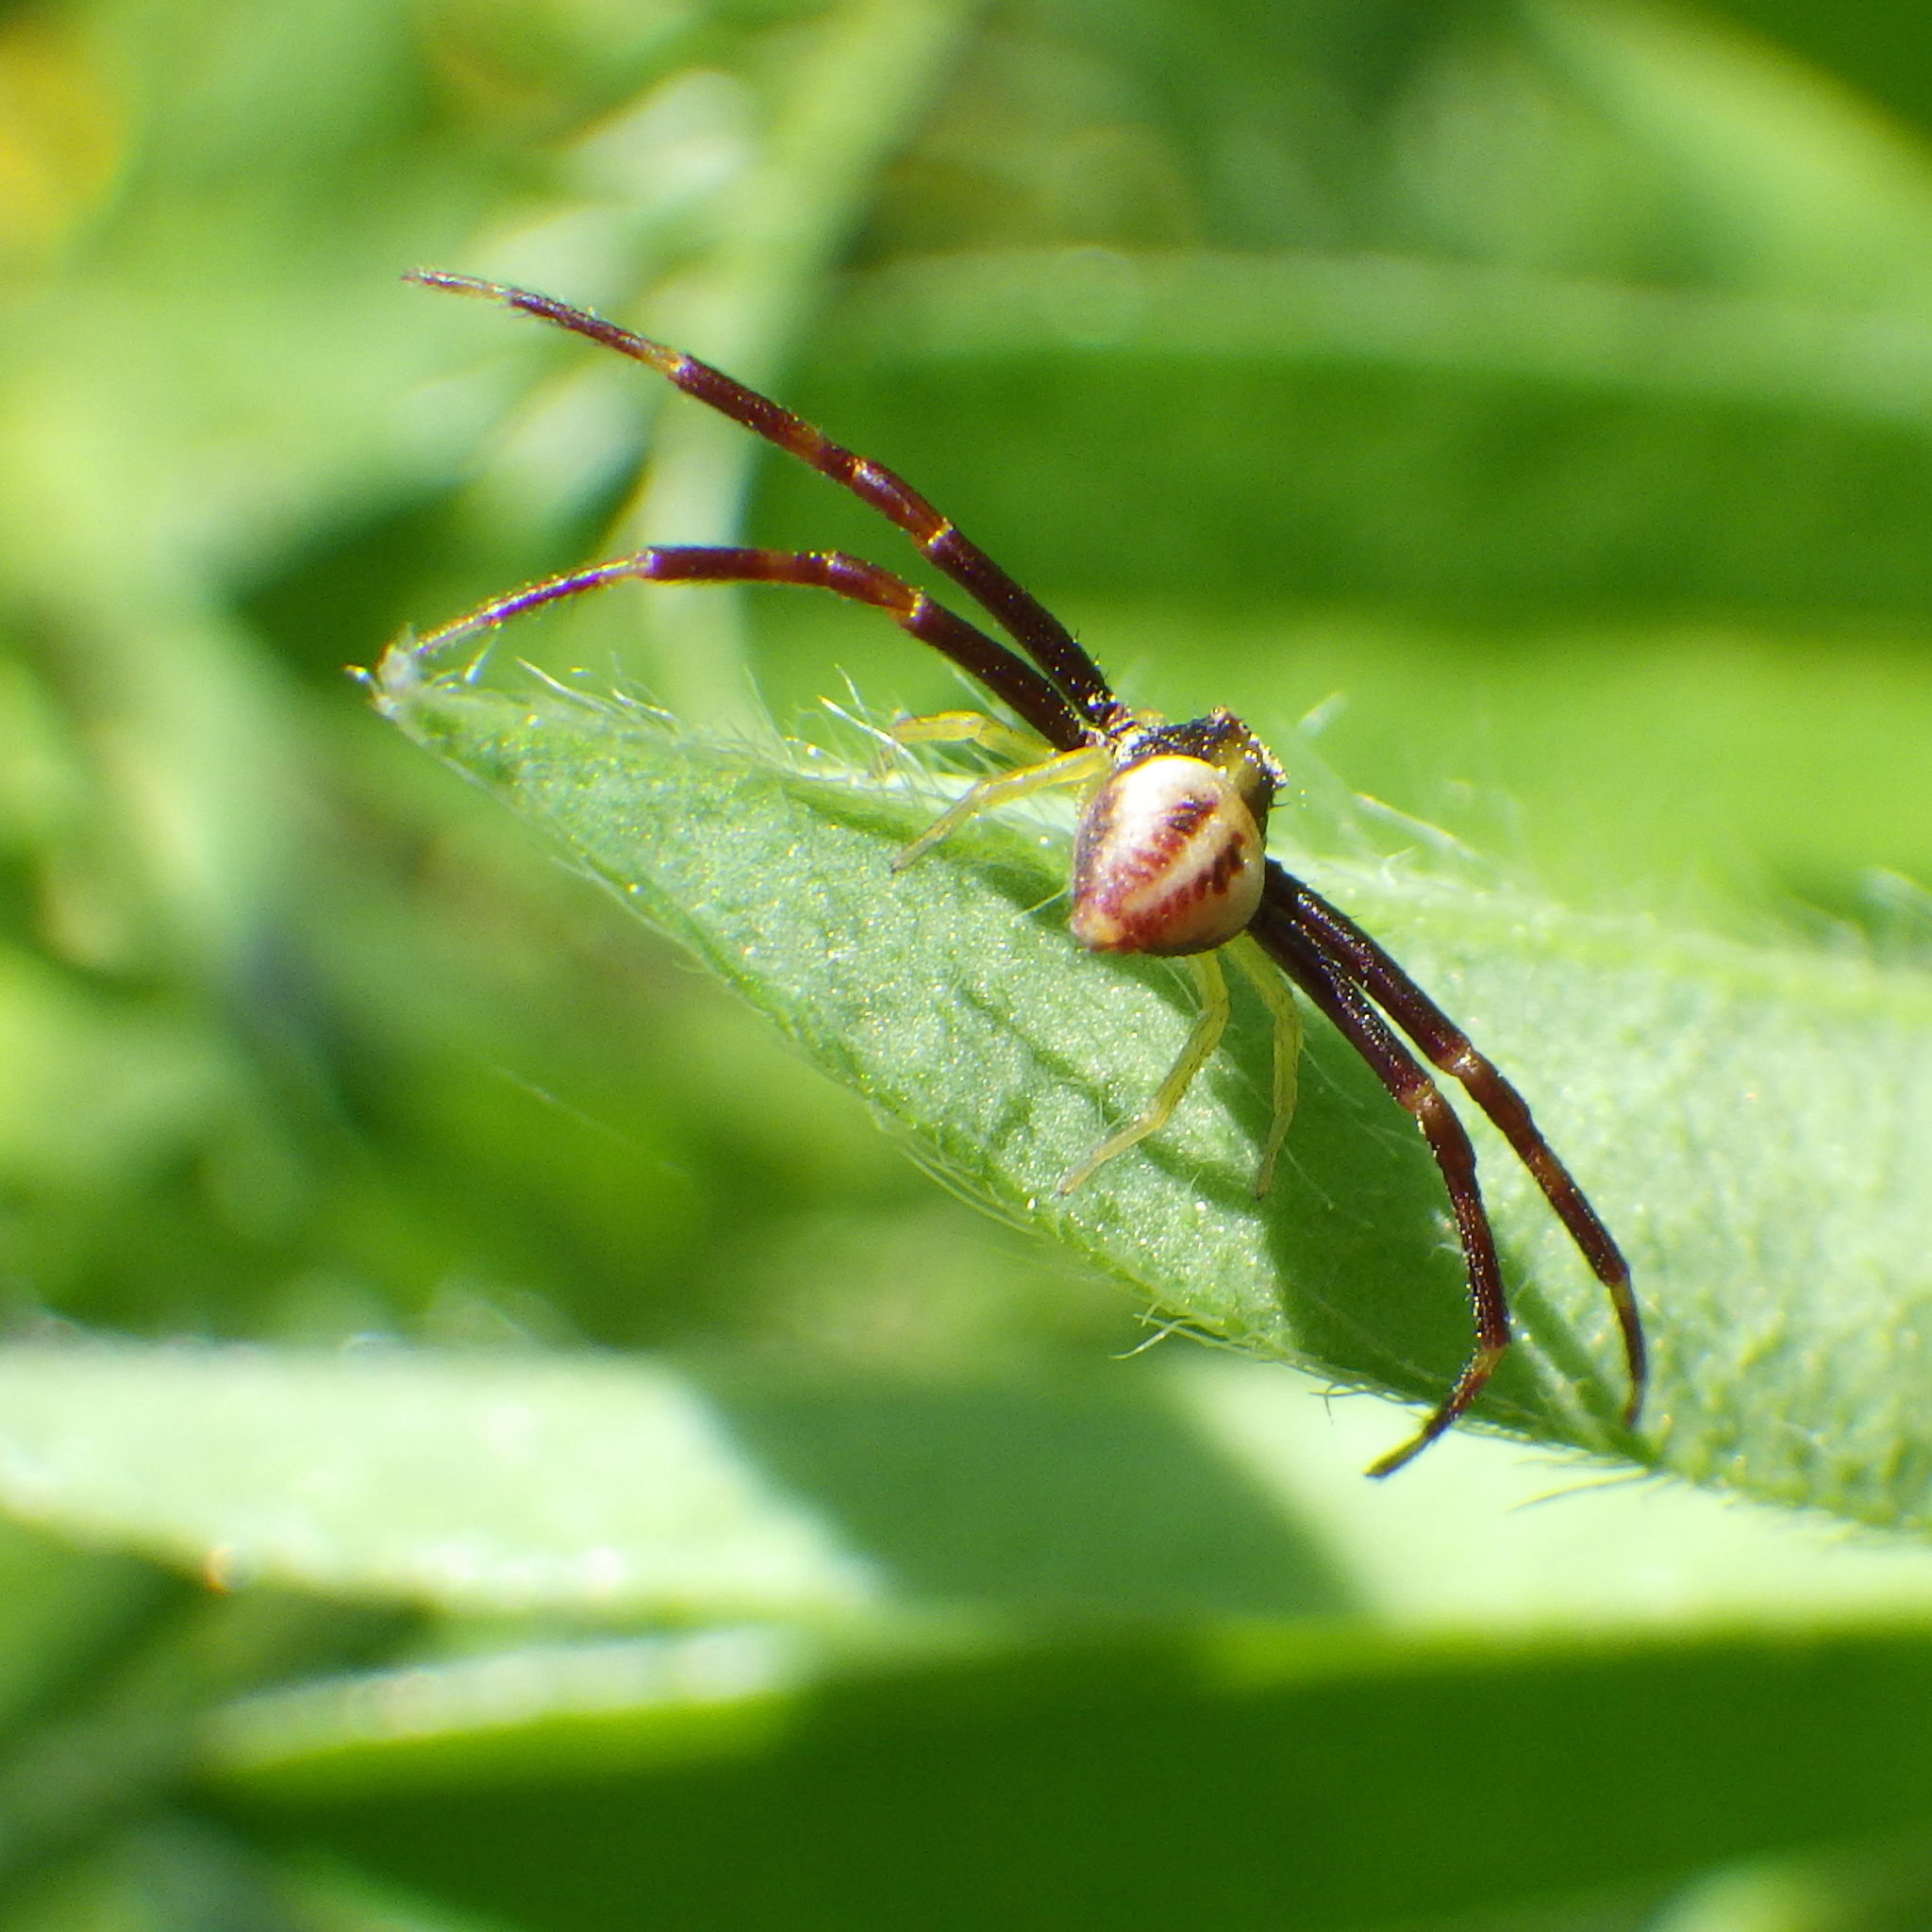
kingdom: Animalia
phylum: Arthropoda
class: Arachnida
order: Araneae
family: Thomisidae
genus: Misumena
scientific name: Misumena vatia
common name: Goldenrod crab spider
